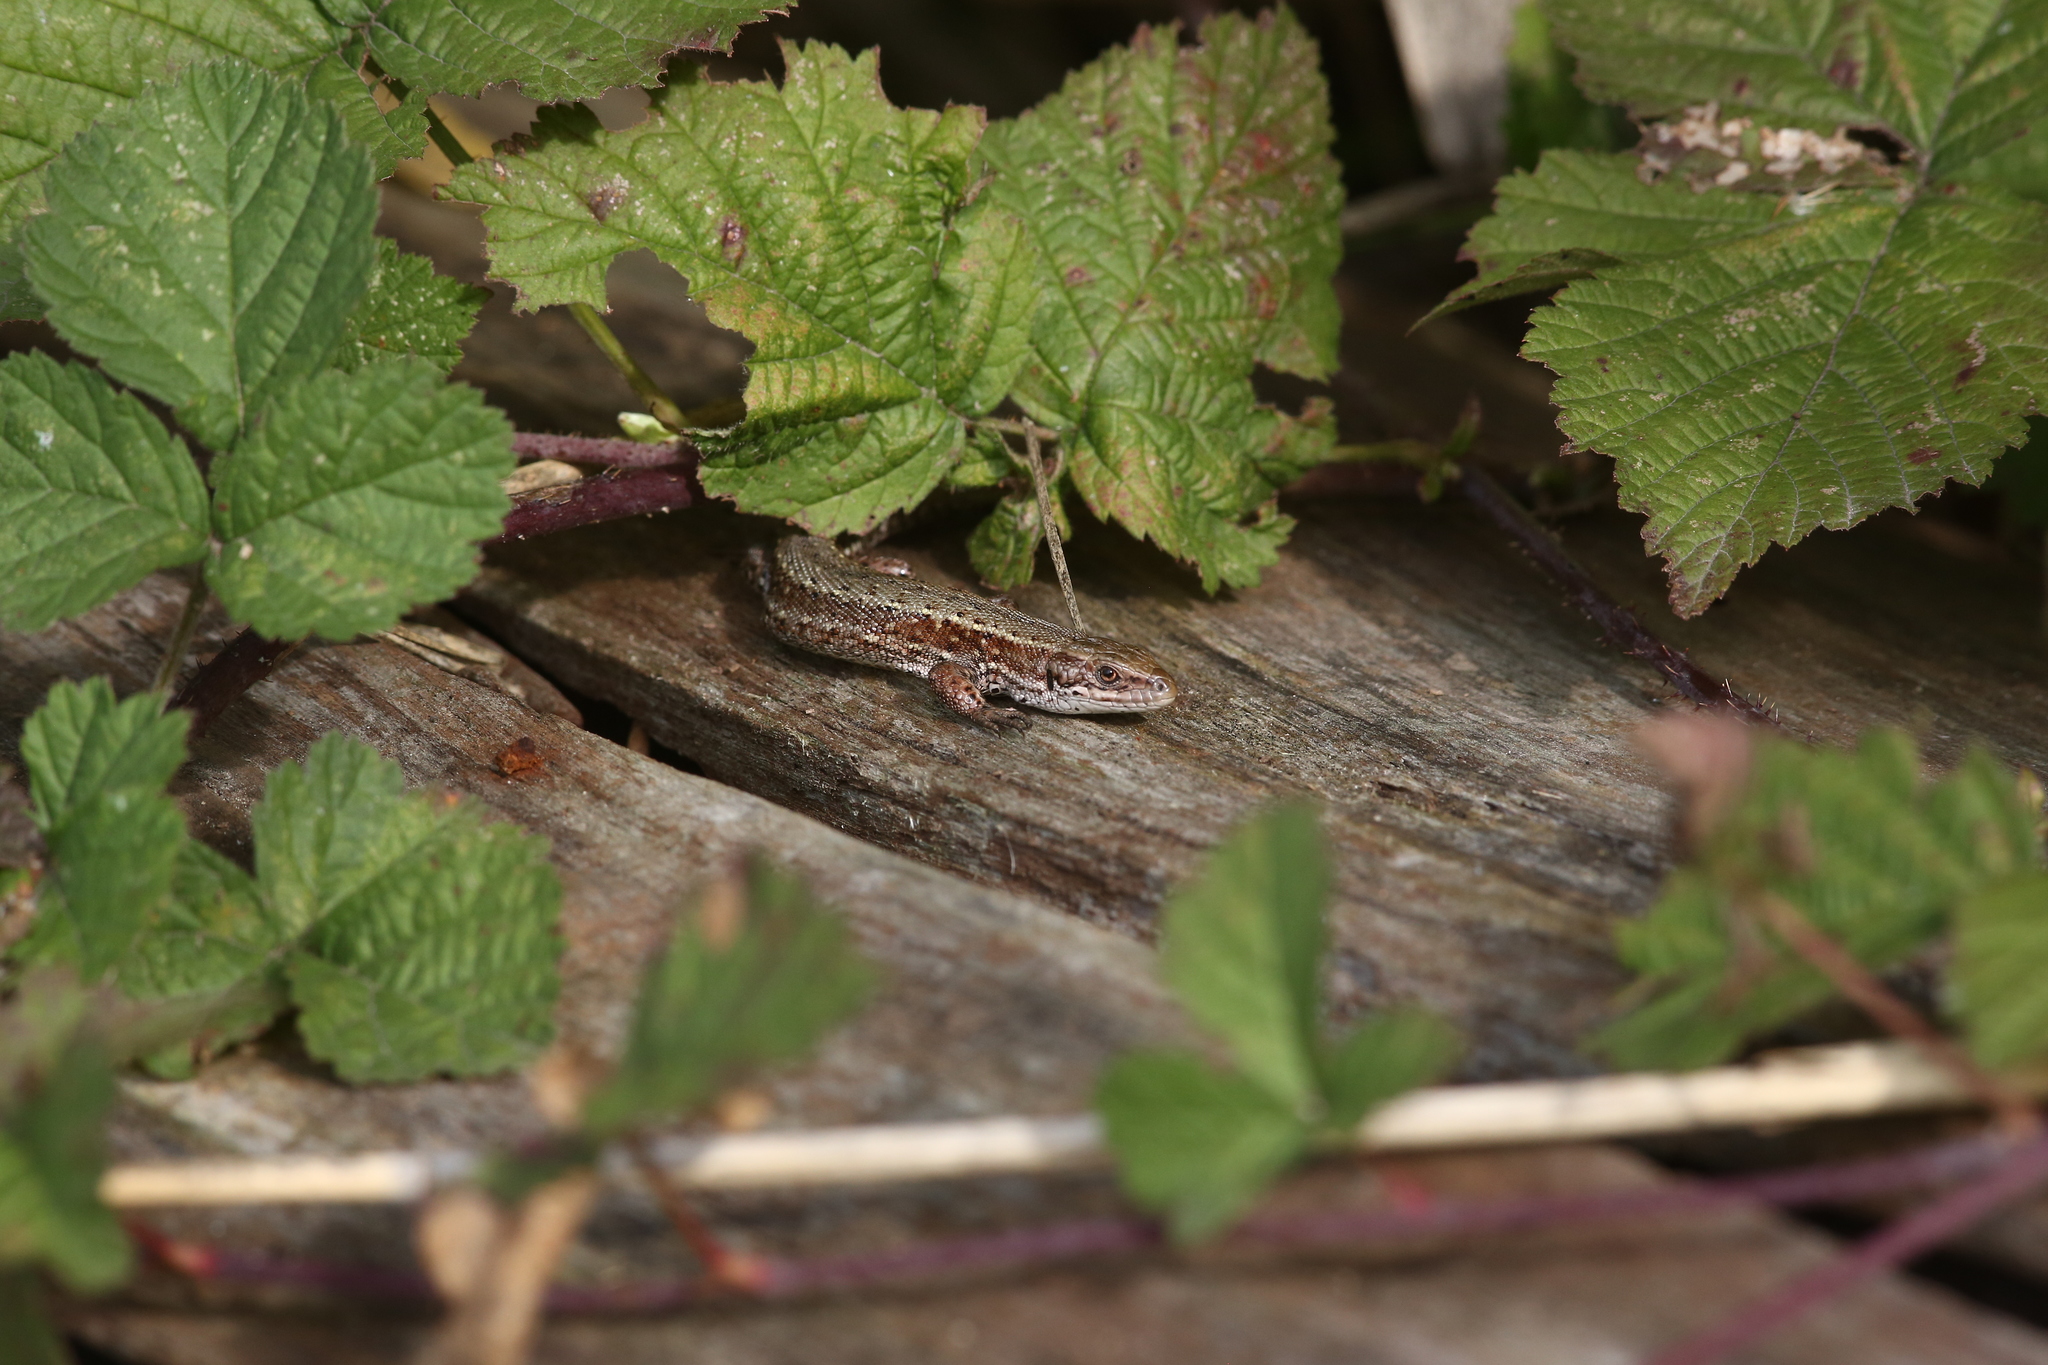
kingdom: Animalia
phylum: Chordata
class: Squamata
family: Lacertidae
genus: Zootoca
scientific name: Zootoca vivipara
